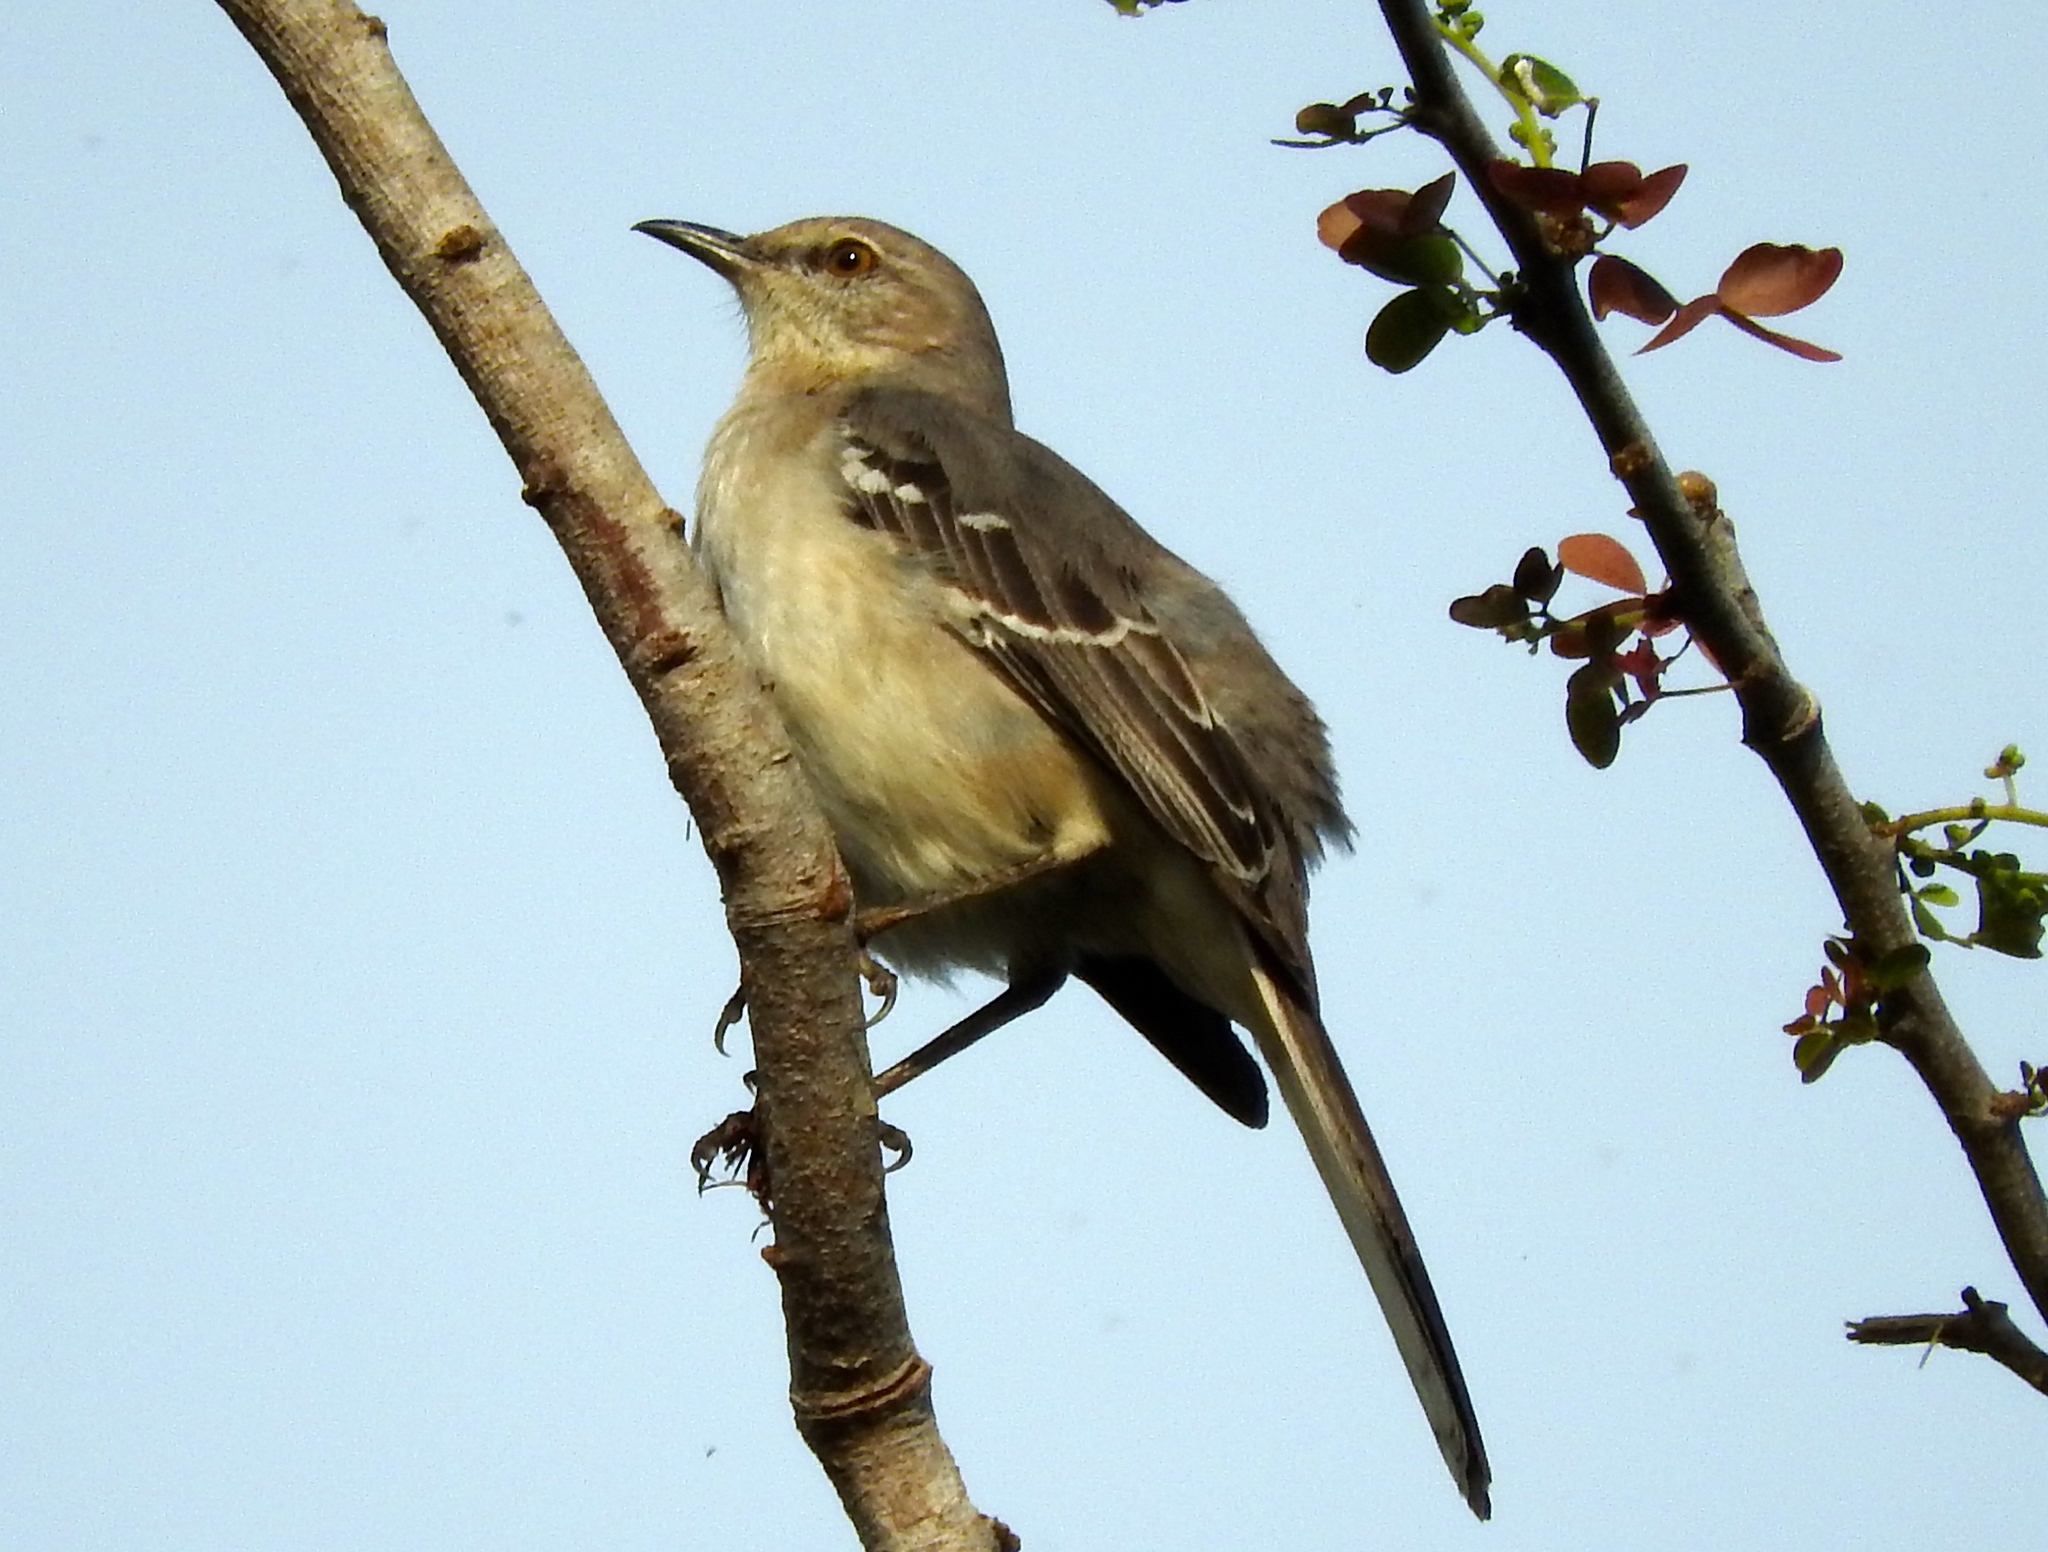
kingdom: Animalia
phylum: Chordata
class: Aves
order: Passeriformes
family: Mimidae
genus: Mimus
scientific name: Mimus polyglottos
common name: Northern mockingbird
